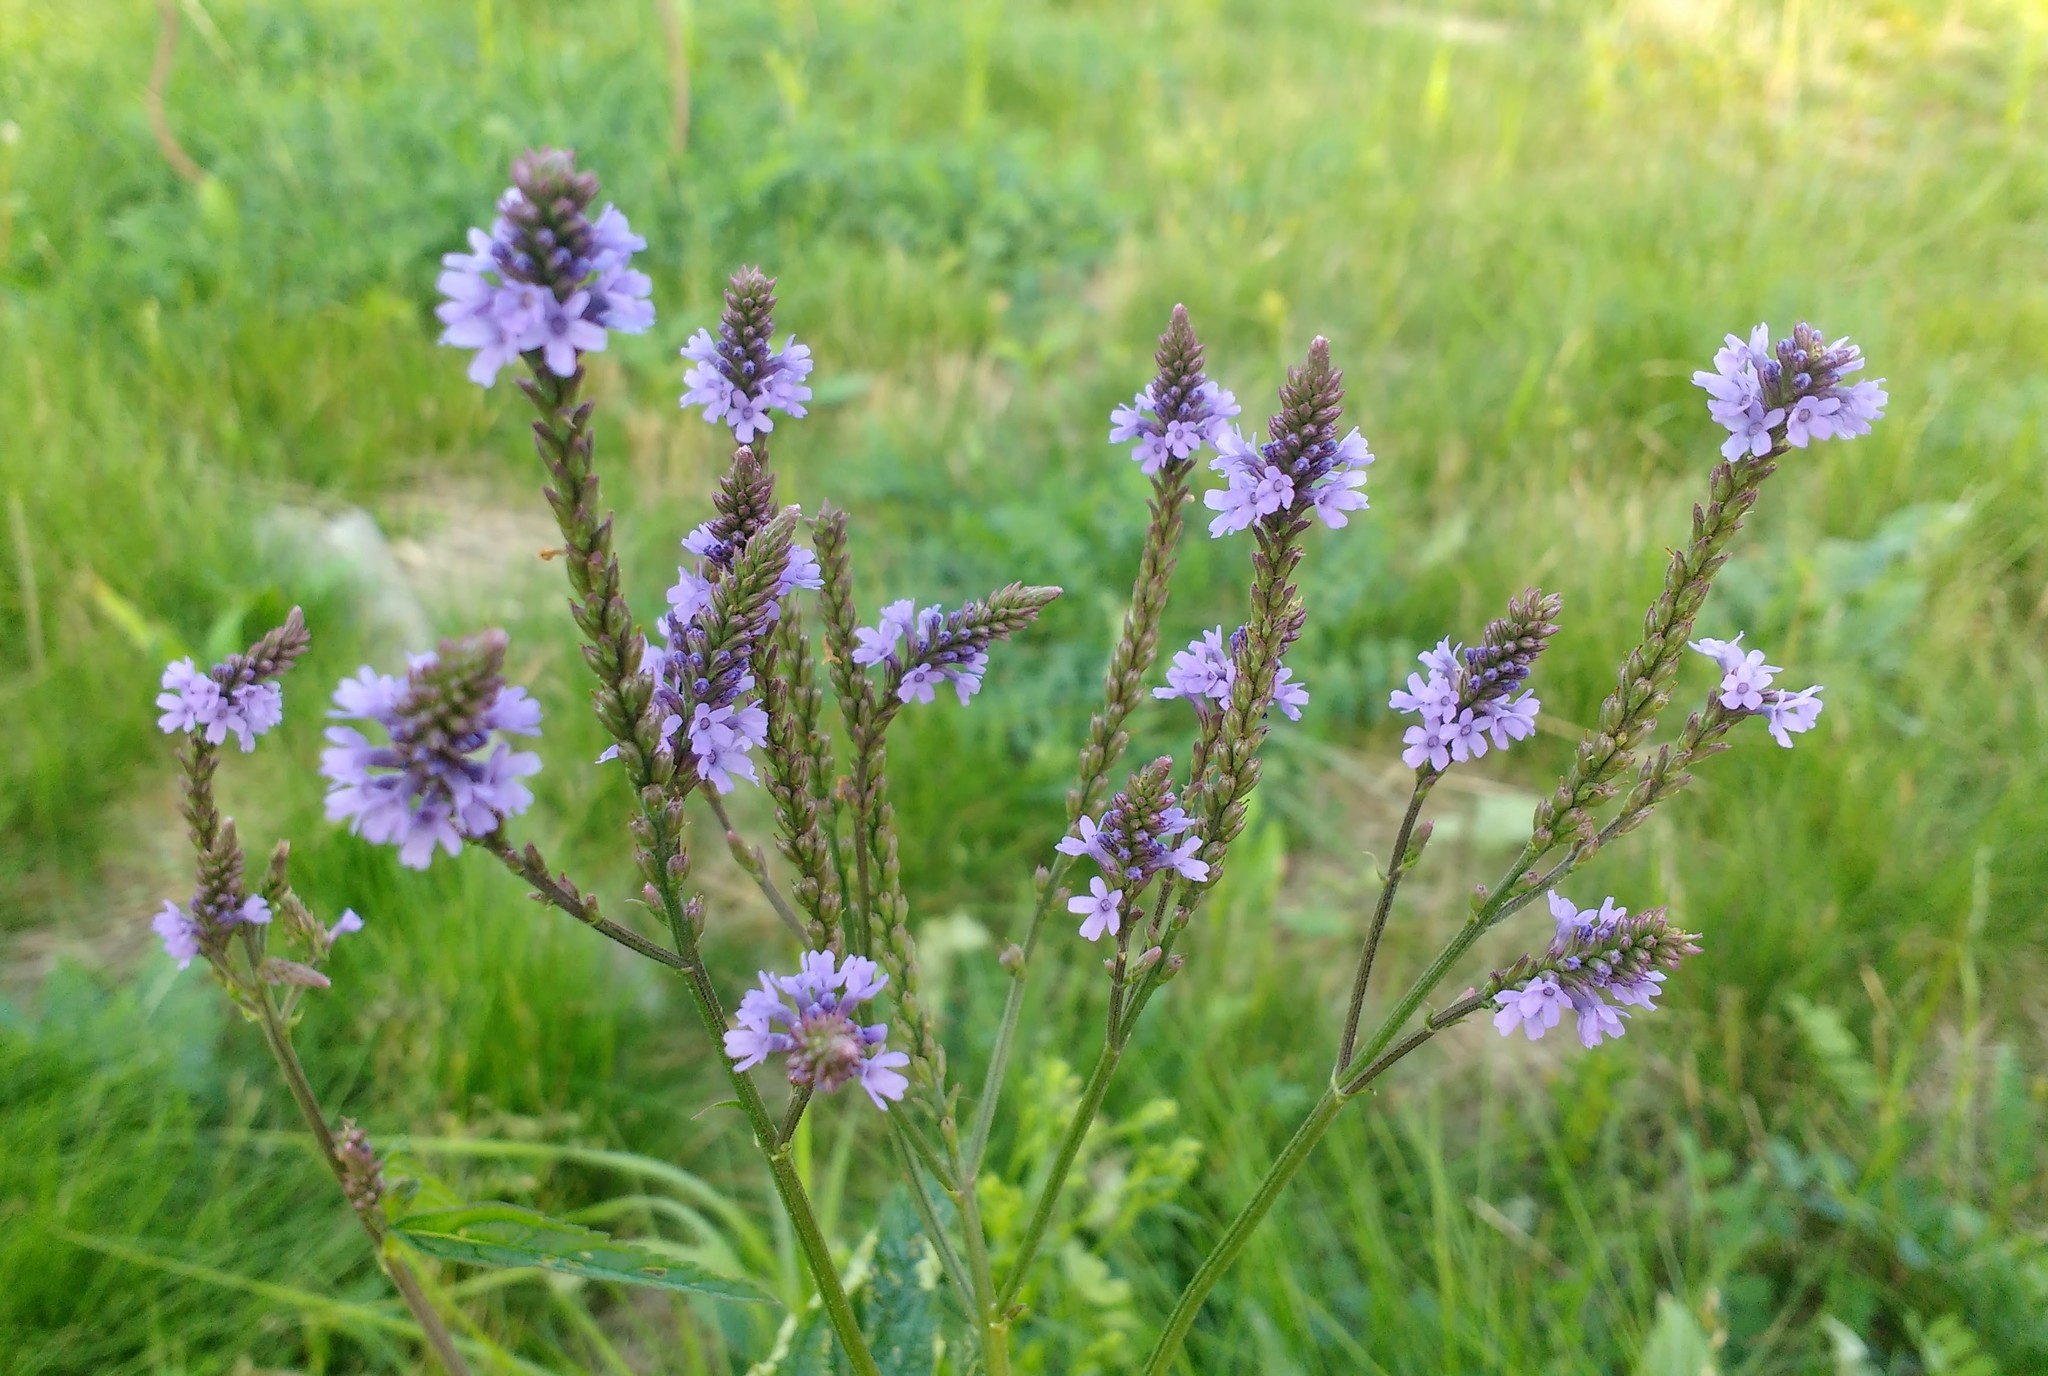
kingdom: Plantae
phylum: Tracheophyta
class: Magnoliopsida
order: Lamiales
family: Verbenaceae
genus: Verbena
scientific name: Verbena hastata
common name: American blue vervain
